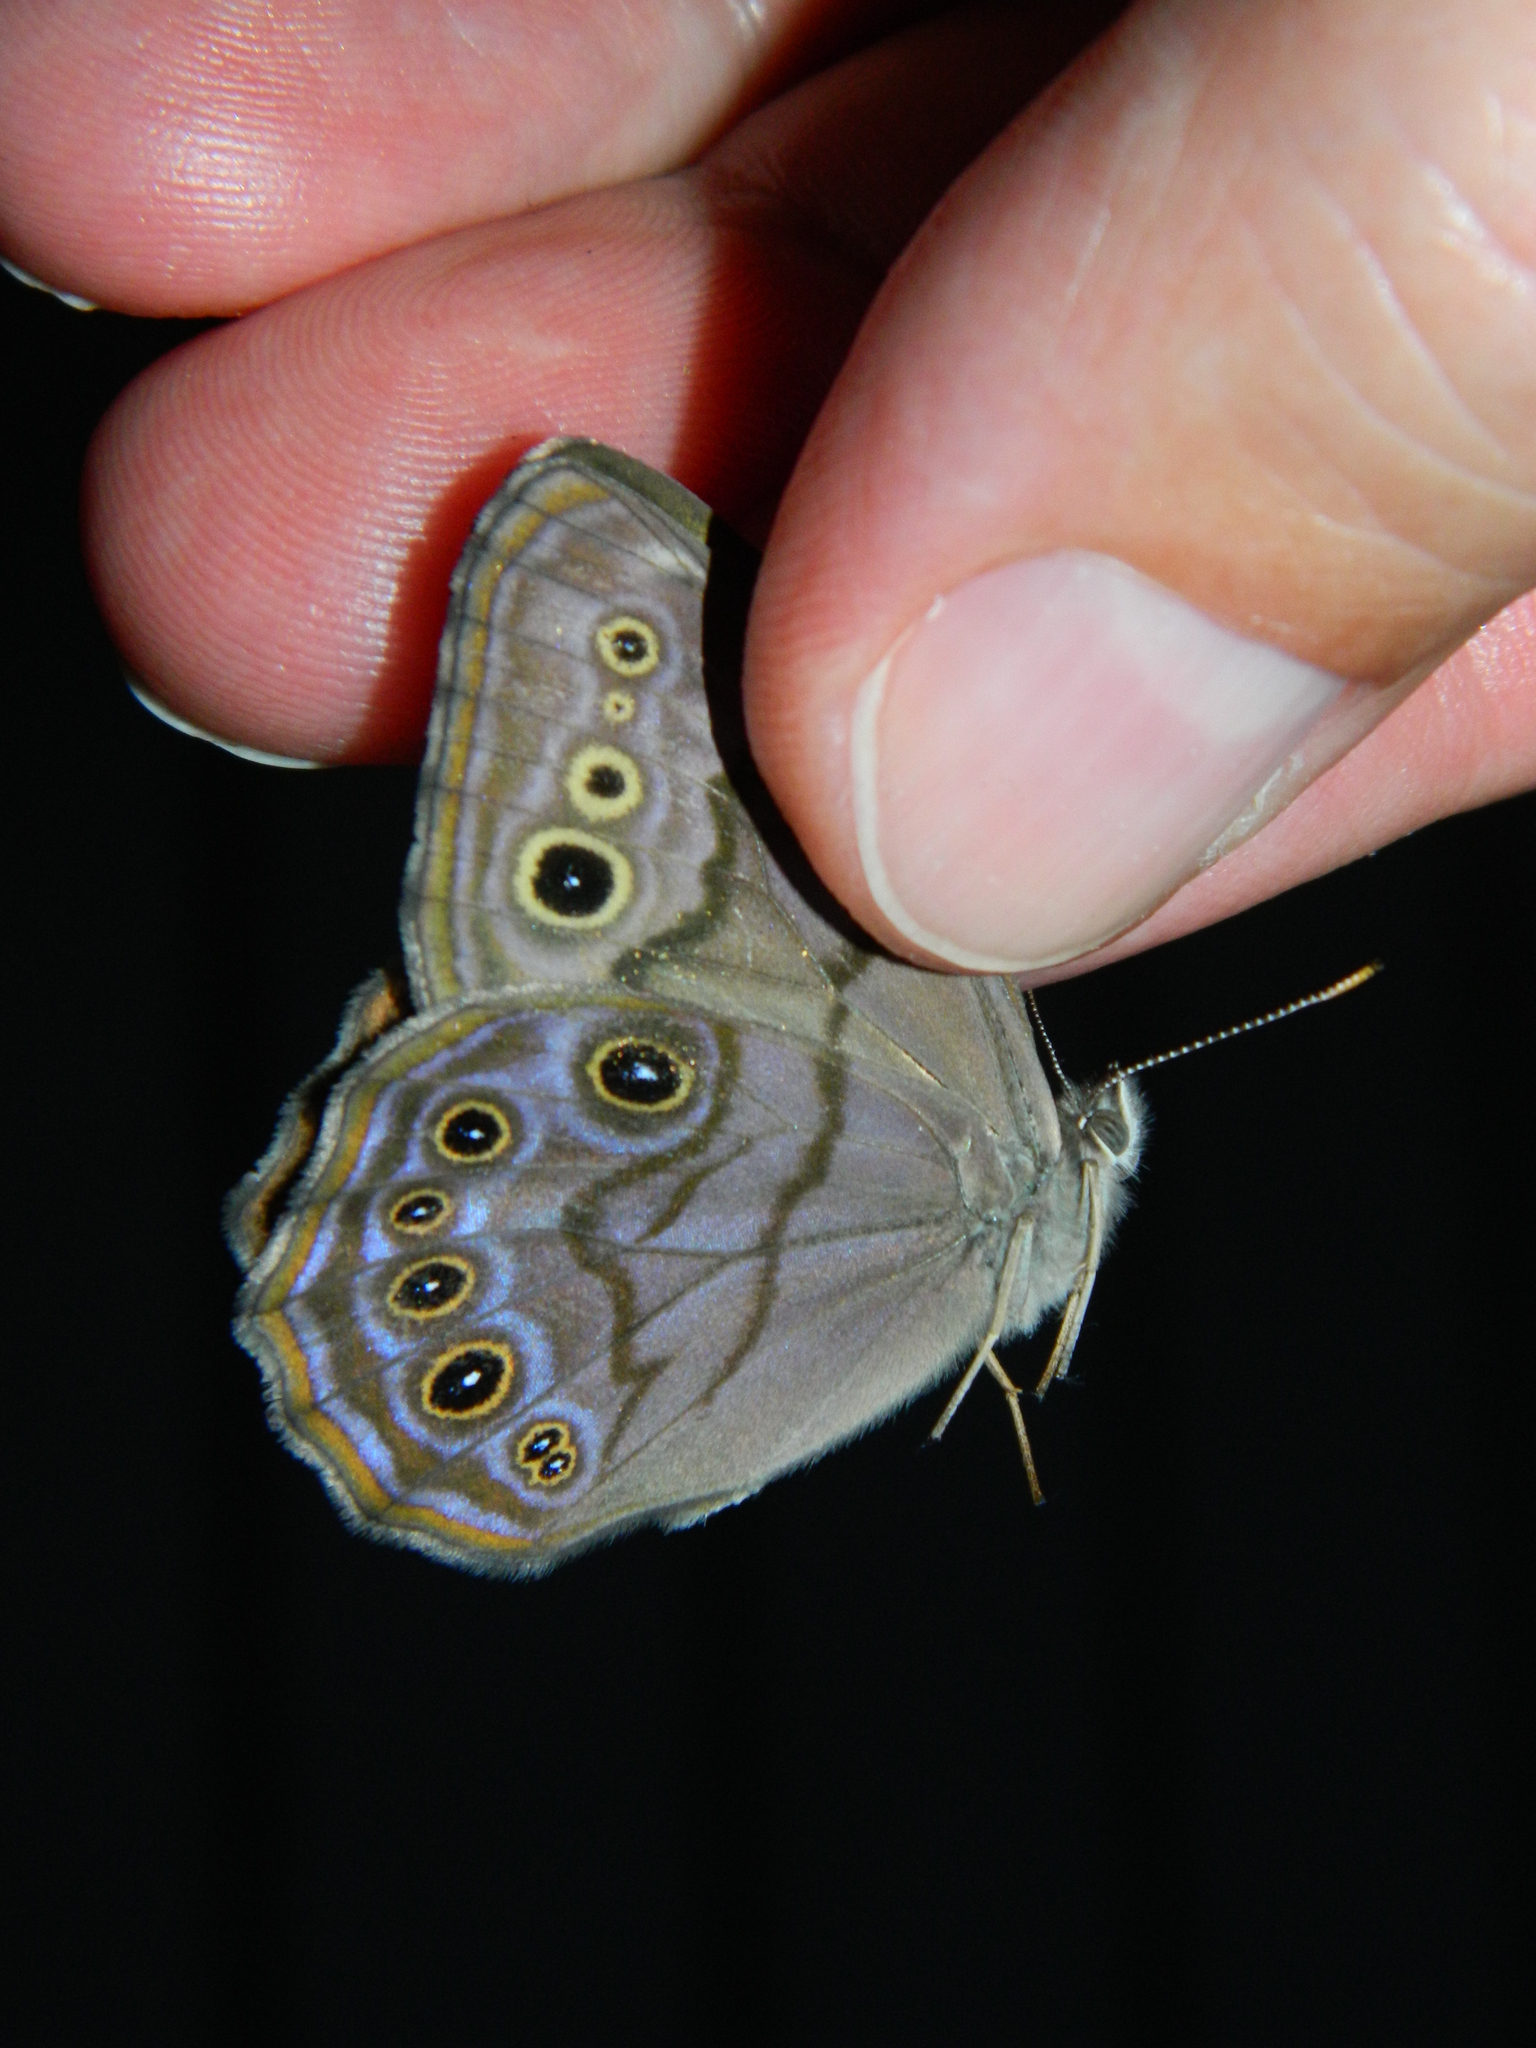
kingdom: Animalia
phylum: Arthropoda
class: Insecta
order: Lepidoptera
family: Nymphalidae
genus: Lethe
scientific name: Lethe anthedon
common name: Northern pearly-eye
